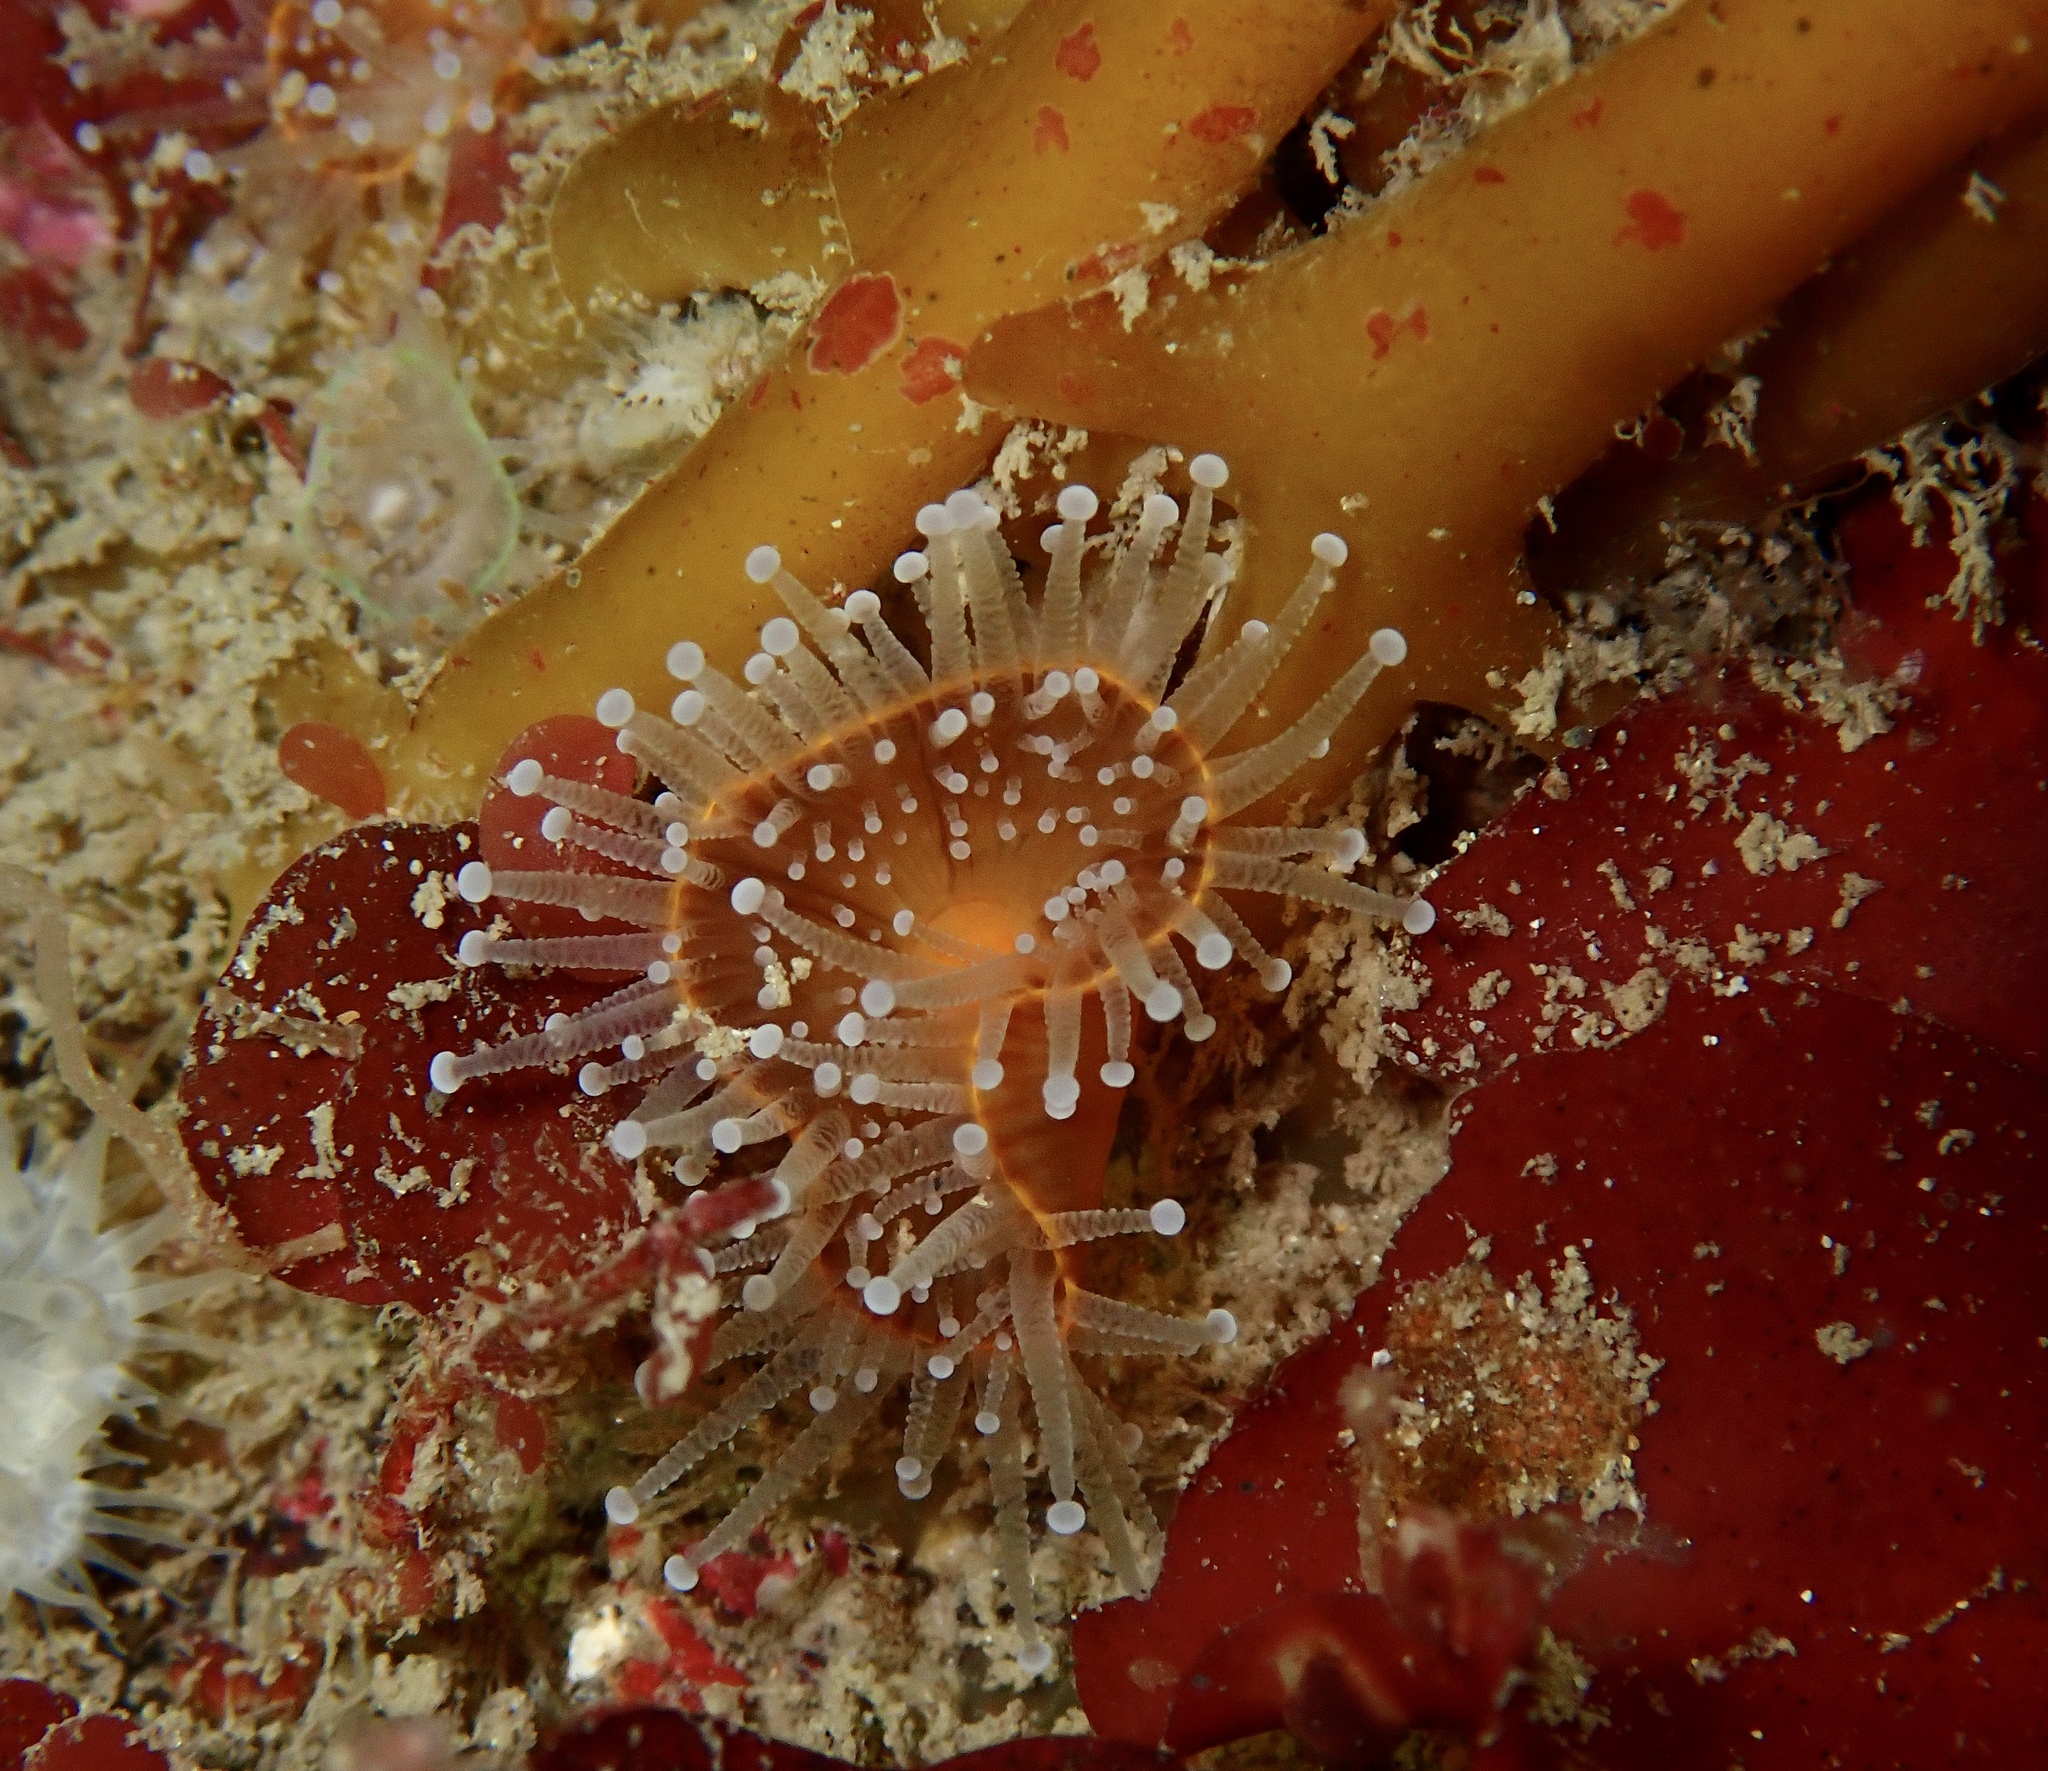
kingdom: Animalia
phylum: Cnidaria
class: Anthozoa
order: Corallimorpharia
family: Corallimorphidae
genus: Corynactis
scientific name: Corynactis viridis
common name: Jewel anemone
